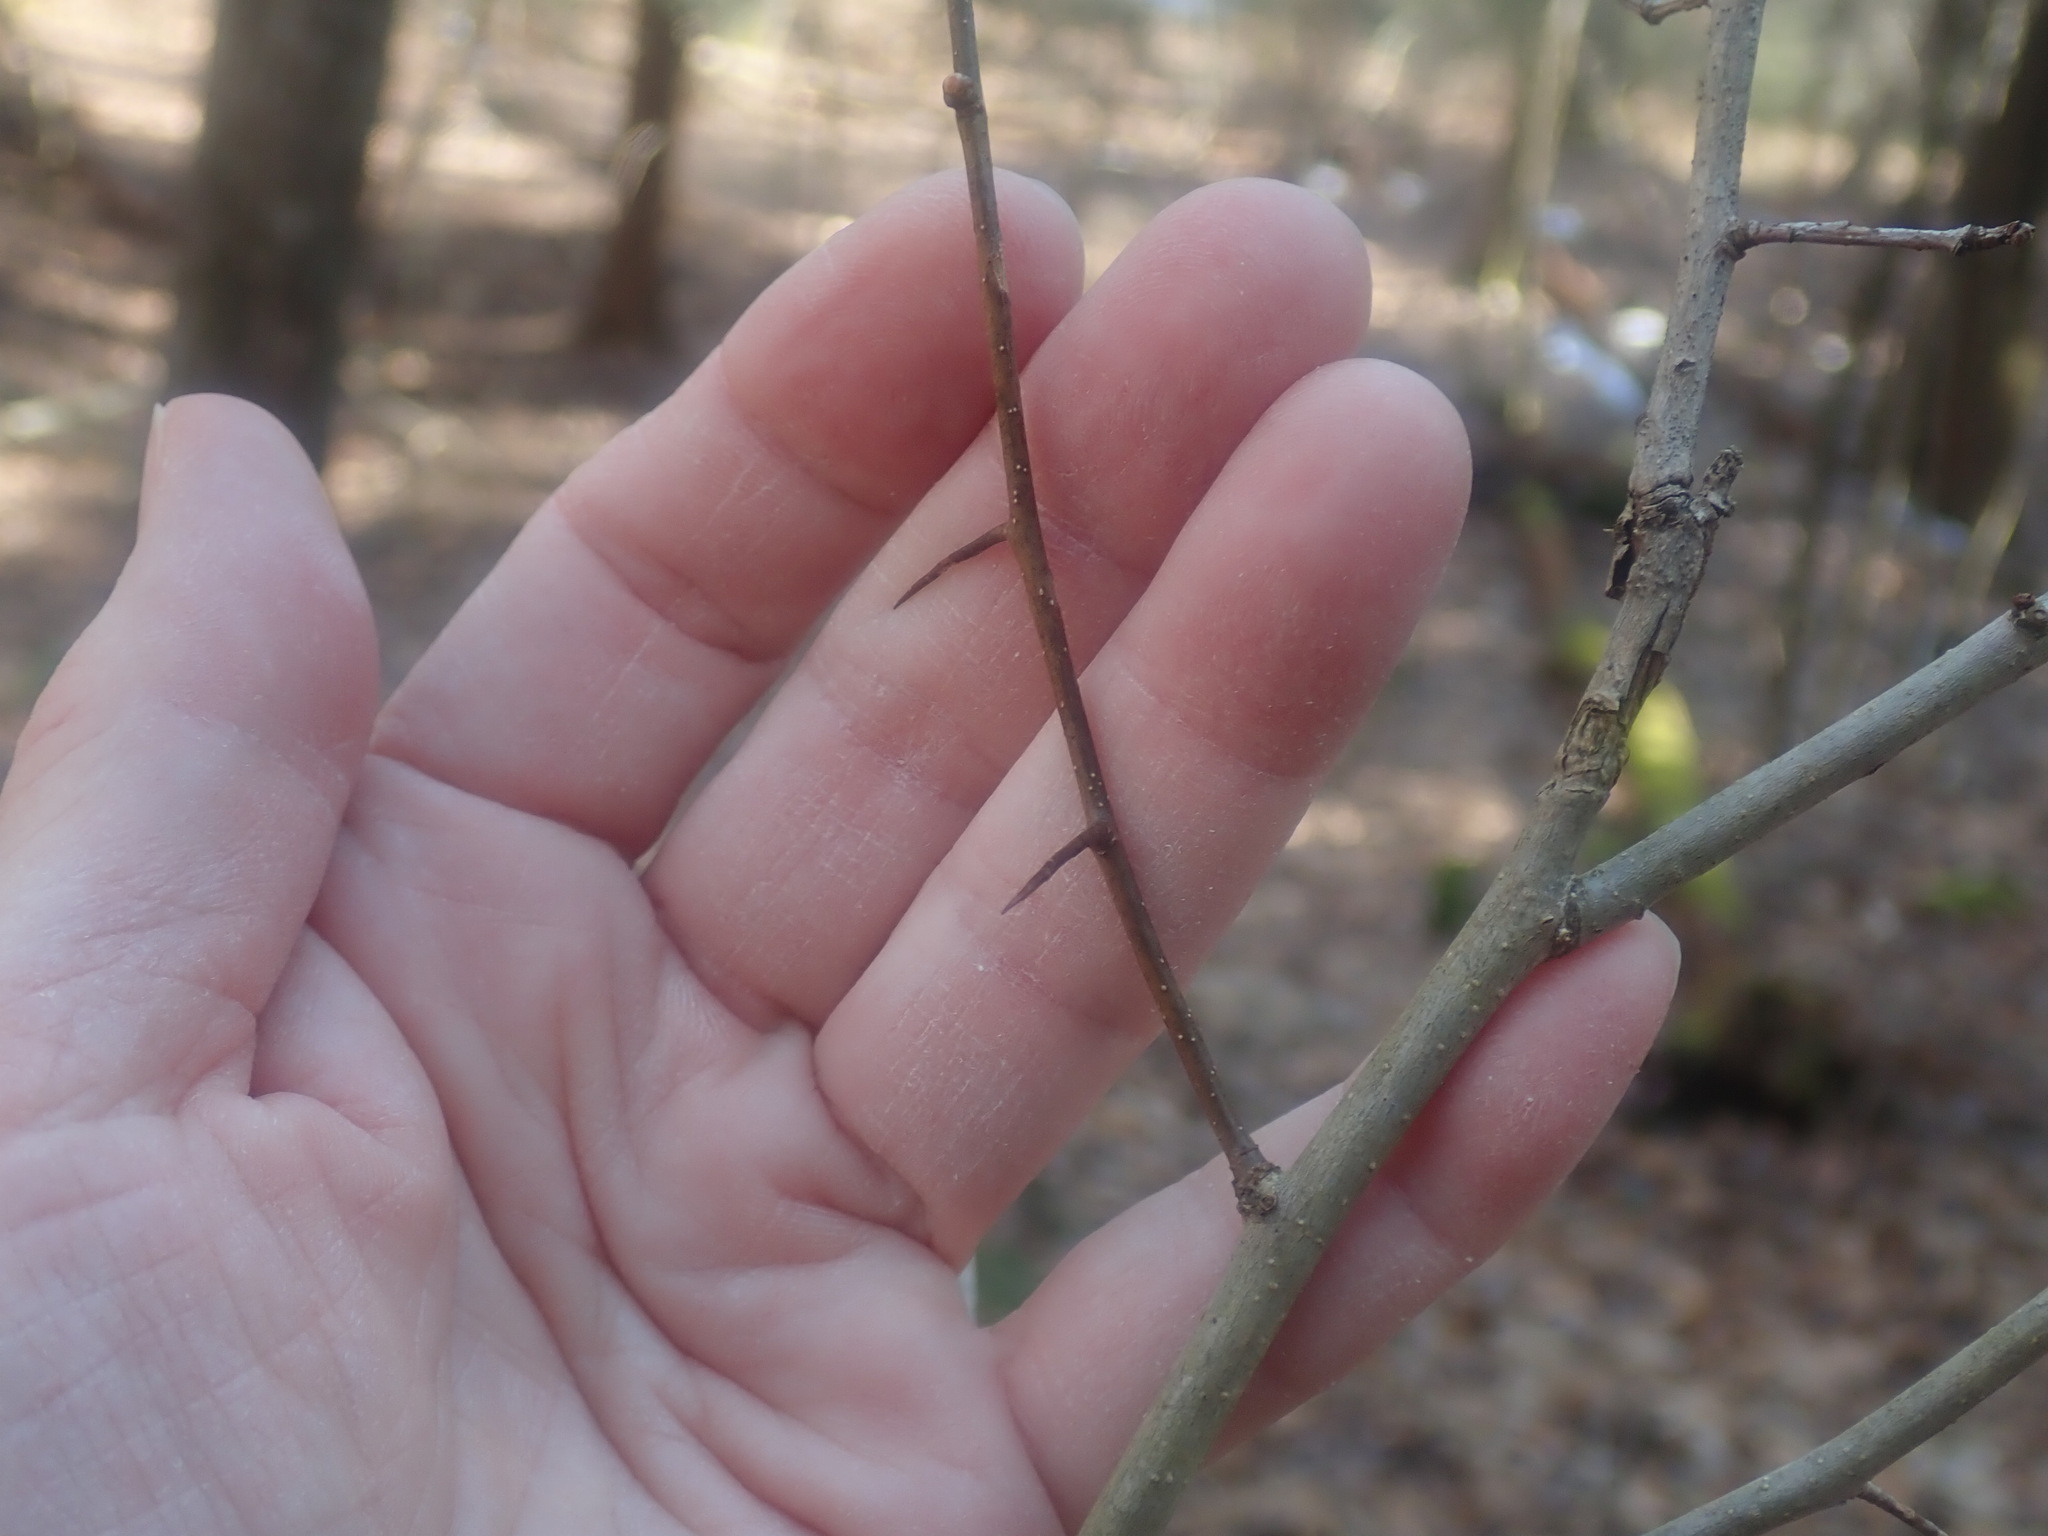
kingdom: Plantae
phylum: Tracheophyta
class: Magnoliopsida
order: Rosales
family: Rosaceae
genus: Crataegus
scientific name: Crataegus
